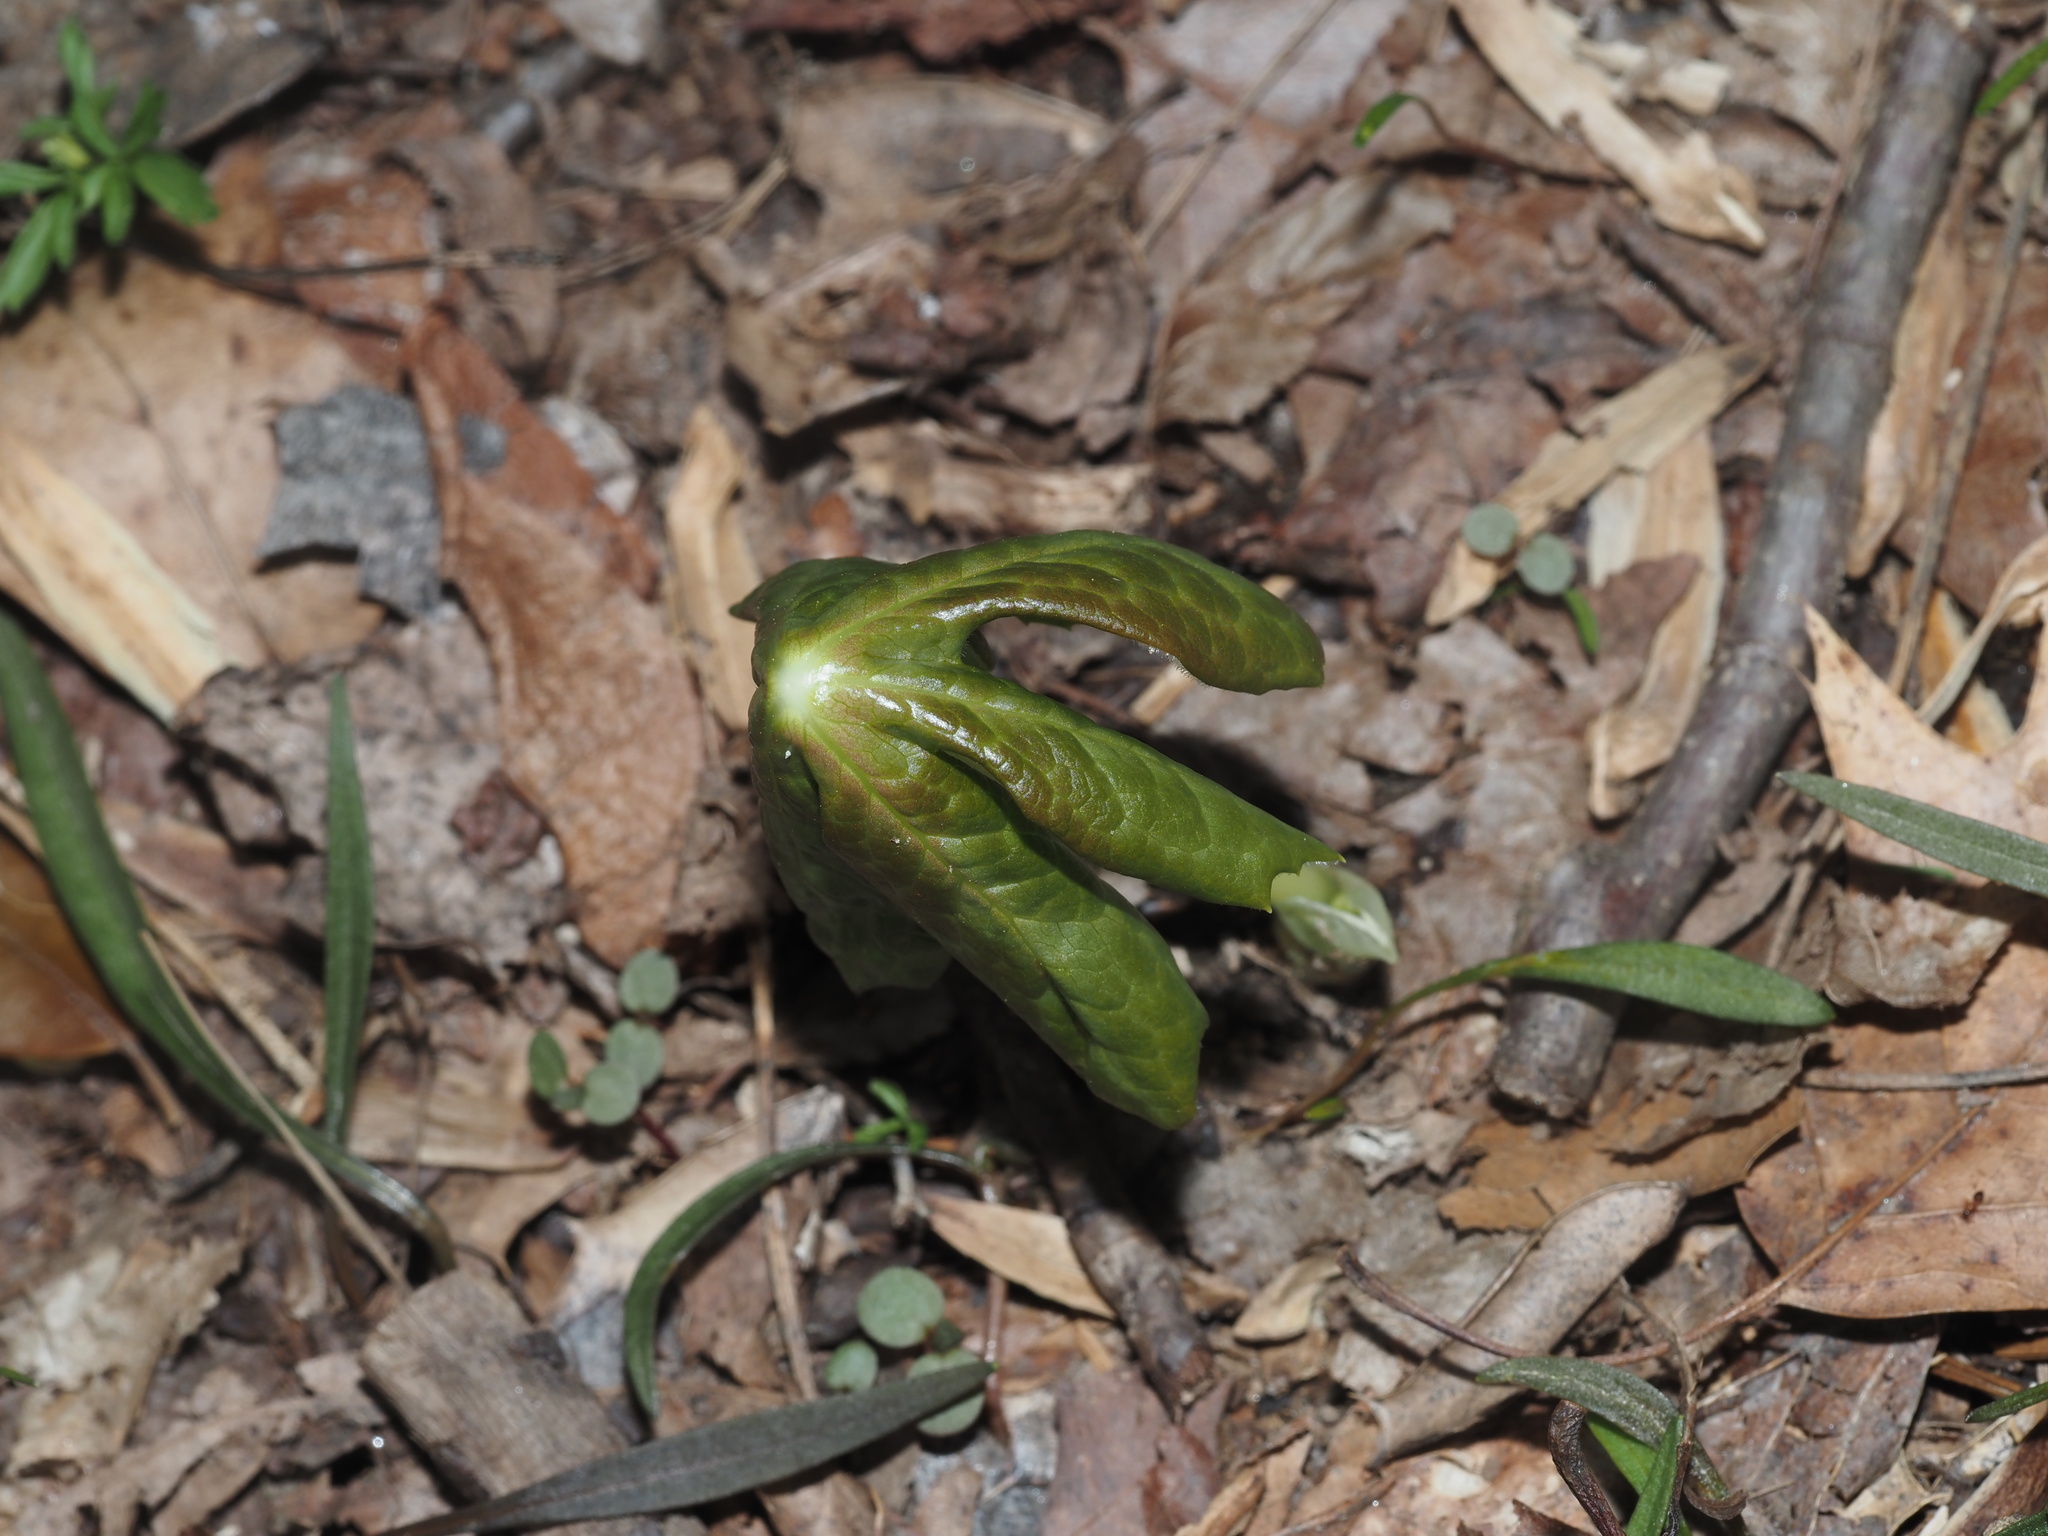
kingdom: Plantae
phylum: Tracheophyta
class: Magnoliopsida
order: Ranunculales
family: Berberidaceae
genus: Podophyllum
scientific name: Podophyllum peltatum
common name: Wild mandrake
